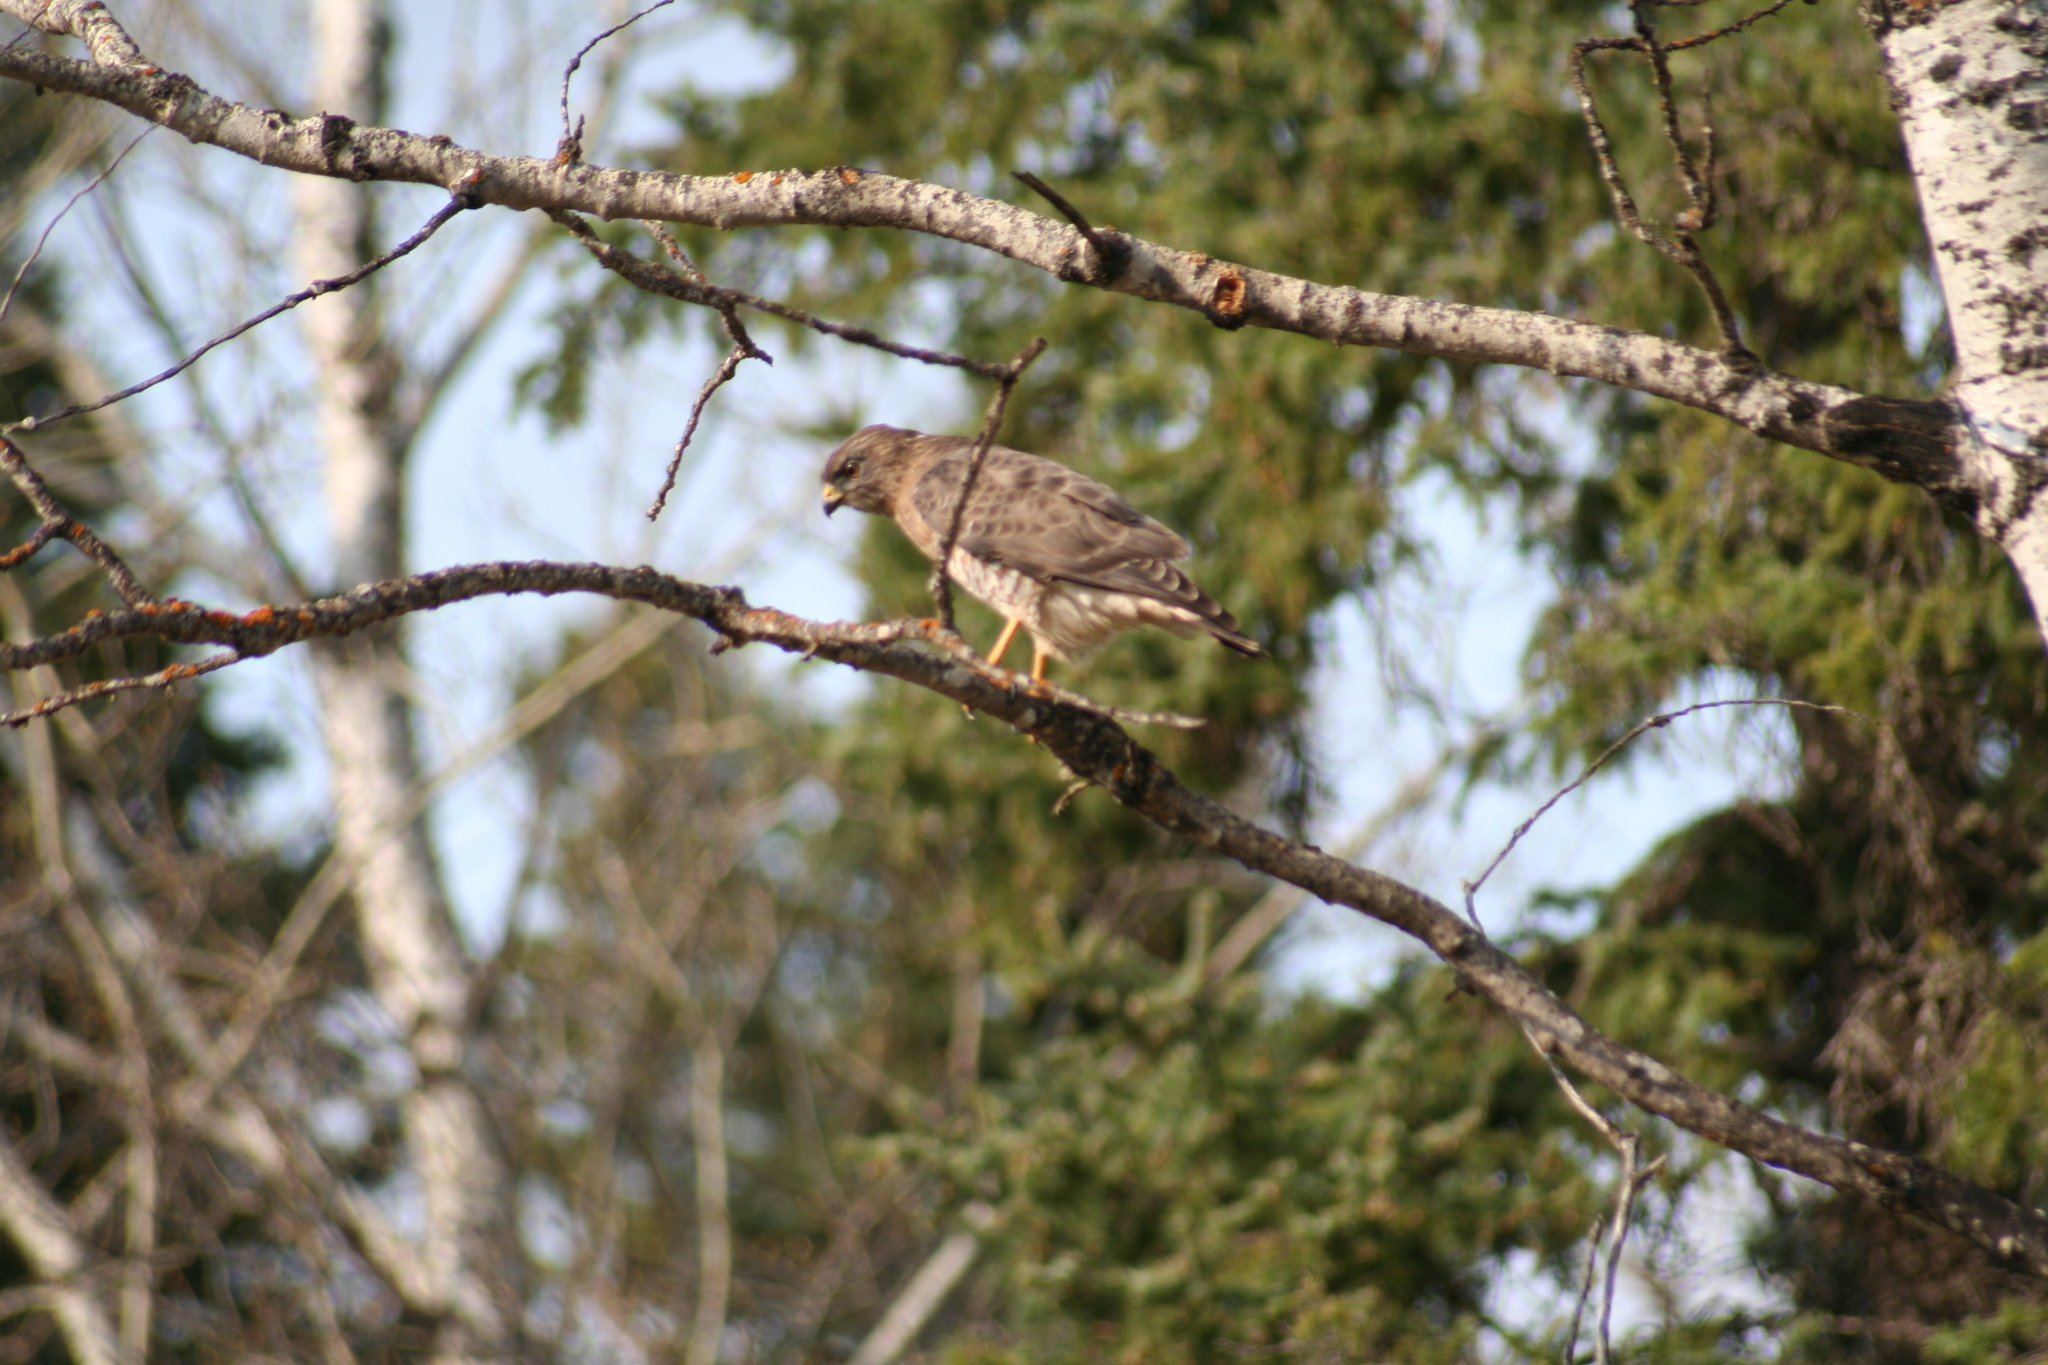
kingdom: Animalia
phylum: Chordata
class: Aves
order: Accipitriformes
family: Accipitridae
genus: Buteo
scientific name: Buteo platypterus
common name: Broad-winged hawk
